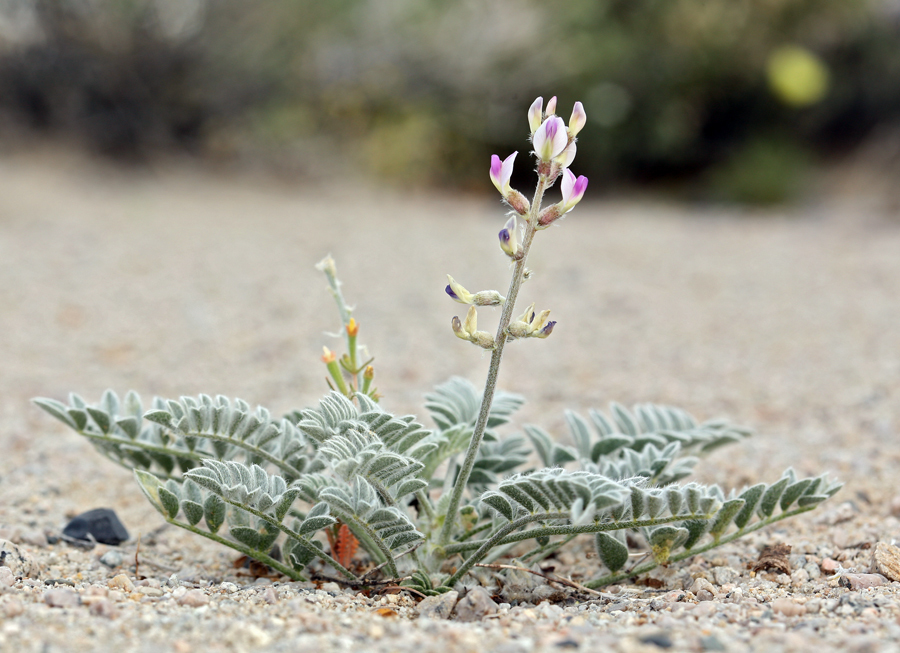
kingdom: Plantae
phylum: Tracheophyta
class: Magnoliopsida
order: Fabales
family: Fabaceae
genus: Astragalus
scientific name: Astragalus layneae
